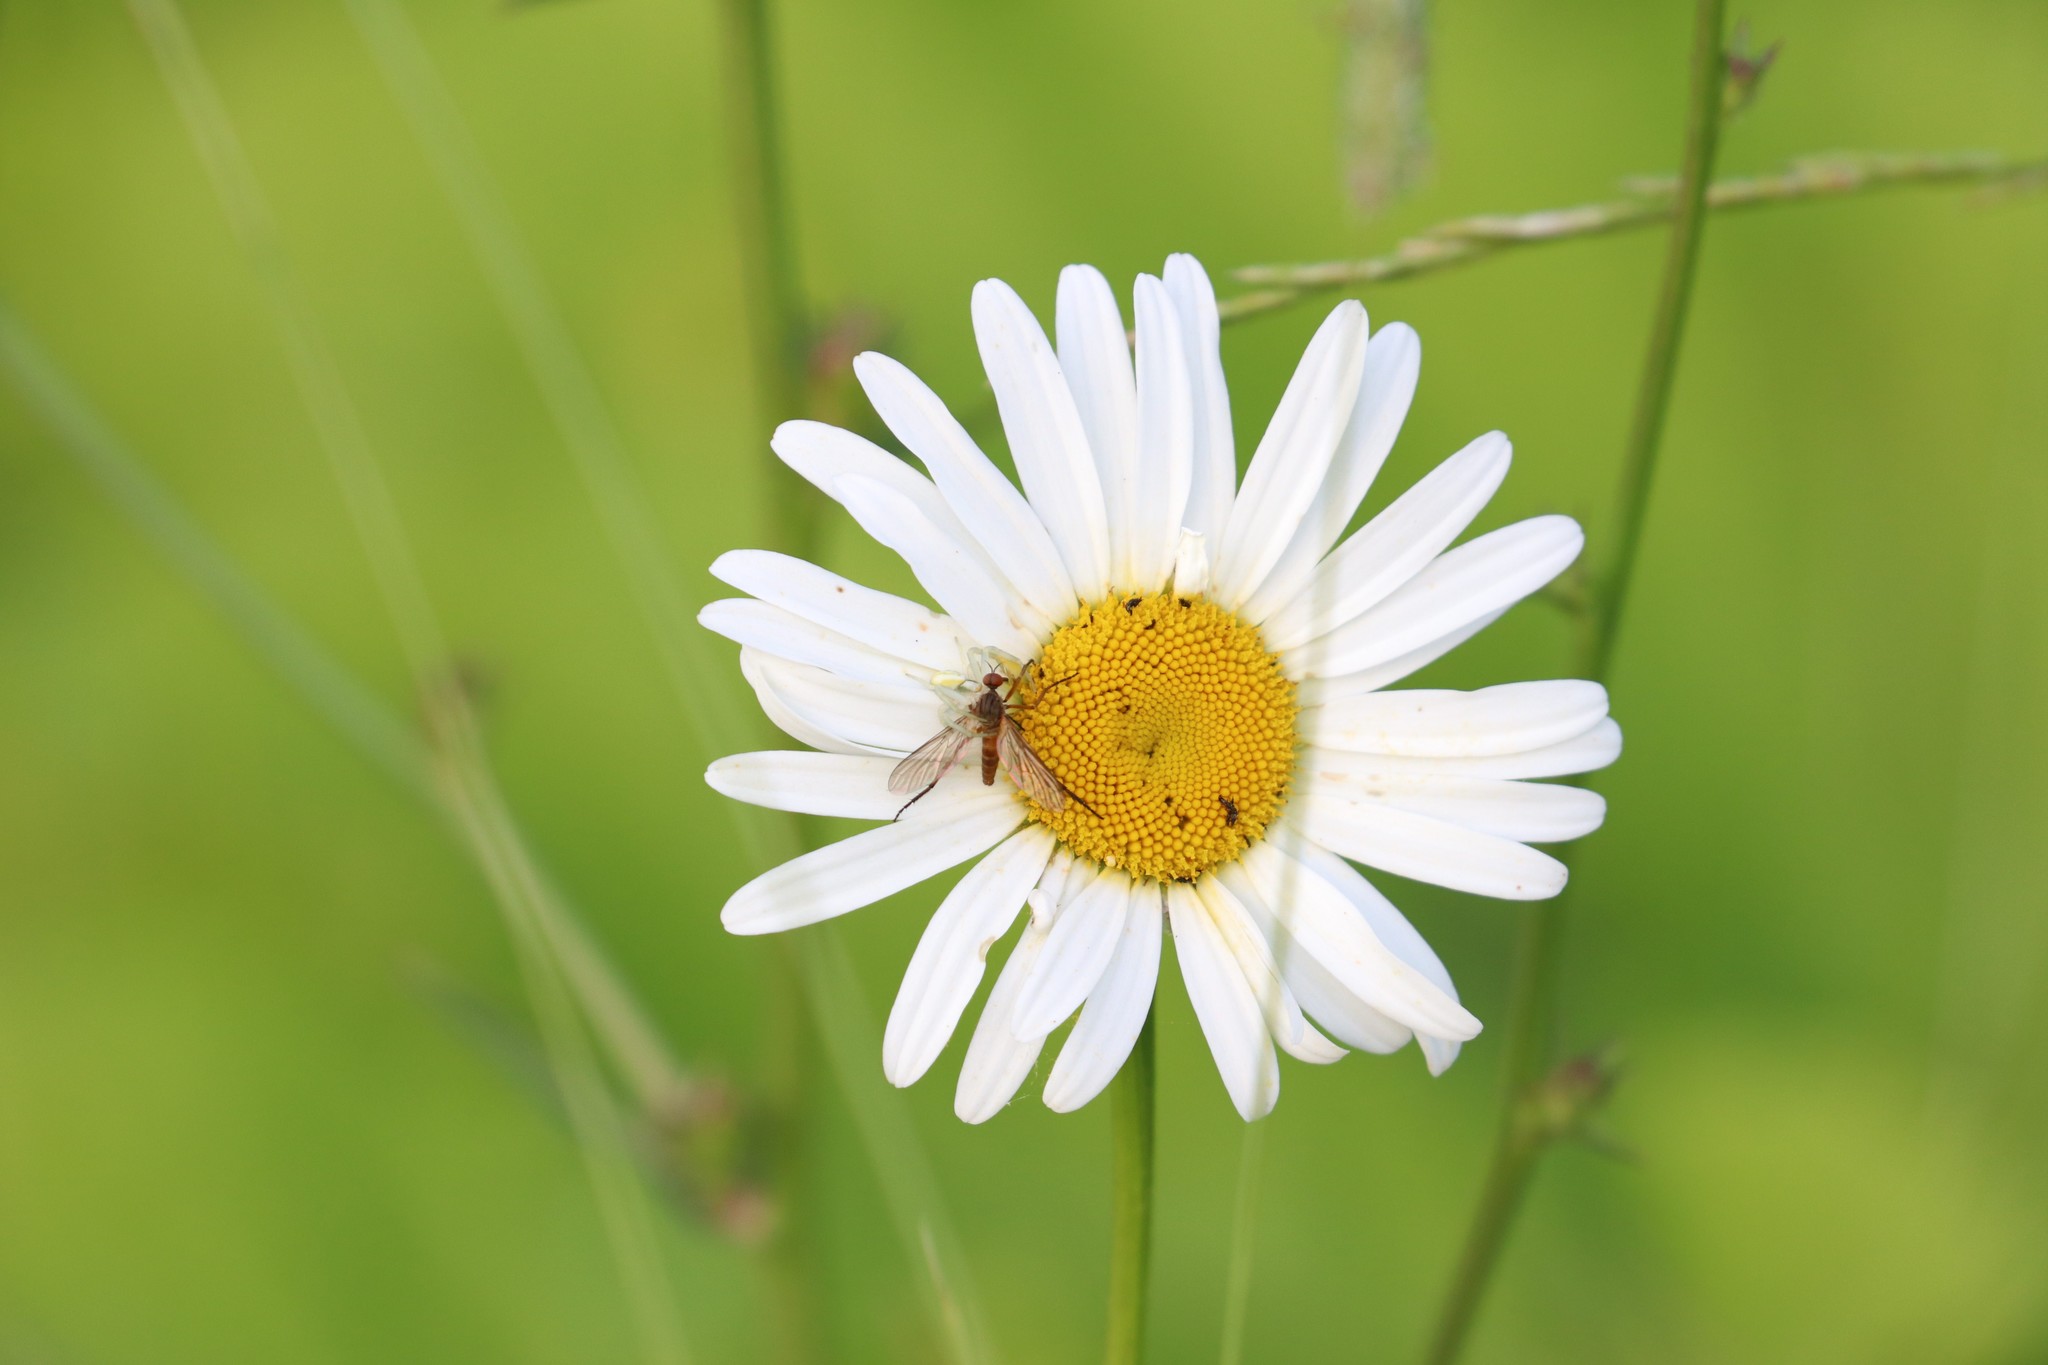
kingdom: Plantae
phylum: Tracheophyta
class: Magnoliopsida
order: Asterales
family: Asteraceae
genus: Leucanthemum
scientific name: Leucanthemum vulgare
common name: Oxeye daisy
